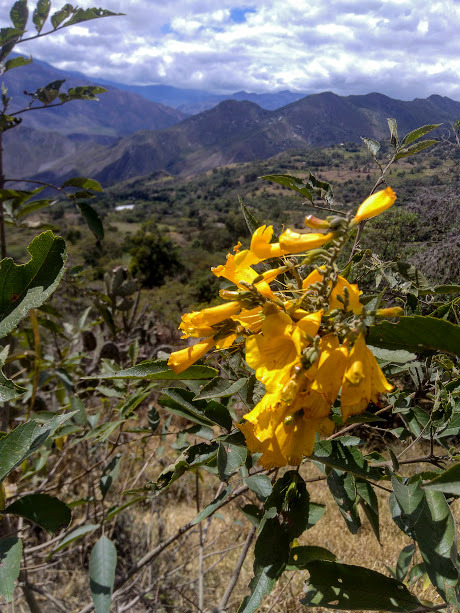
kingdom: Plantae
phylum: Tracheophyta
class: Magnoliopsida
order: Lamiales
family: Bignoniaceae
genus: Tecoma
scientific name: Tecoma stans
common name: Yellow trumpetbush
